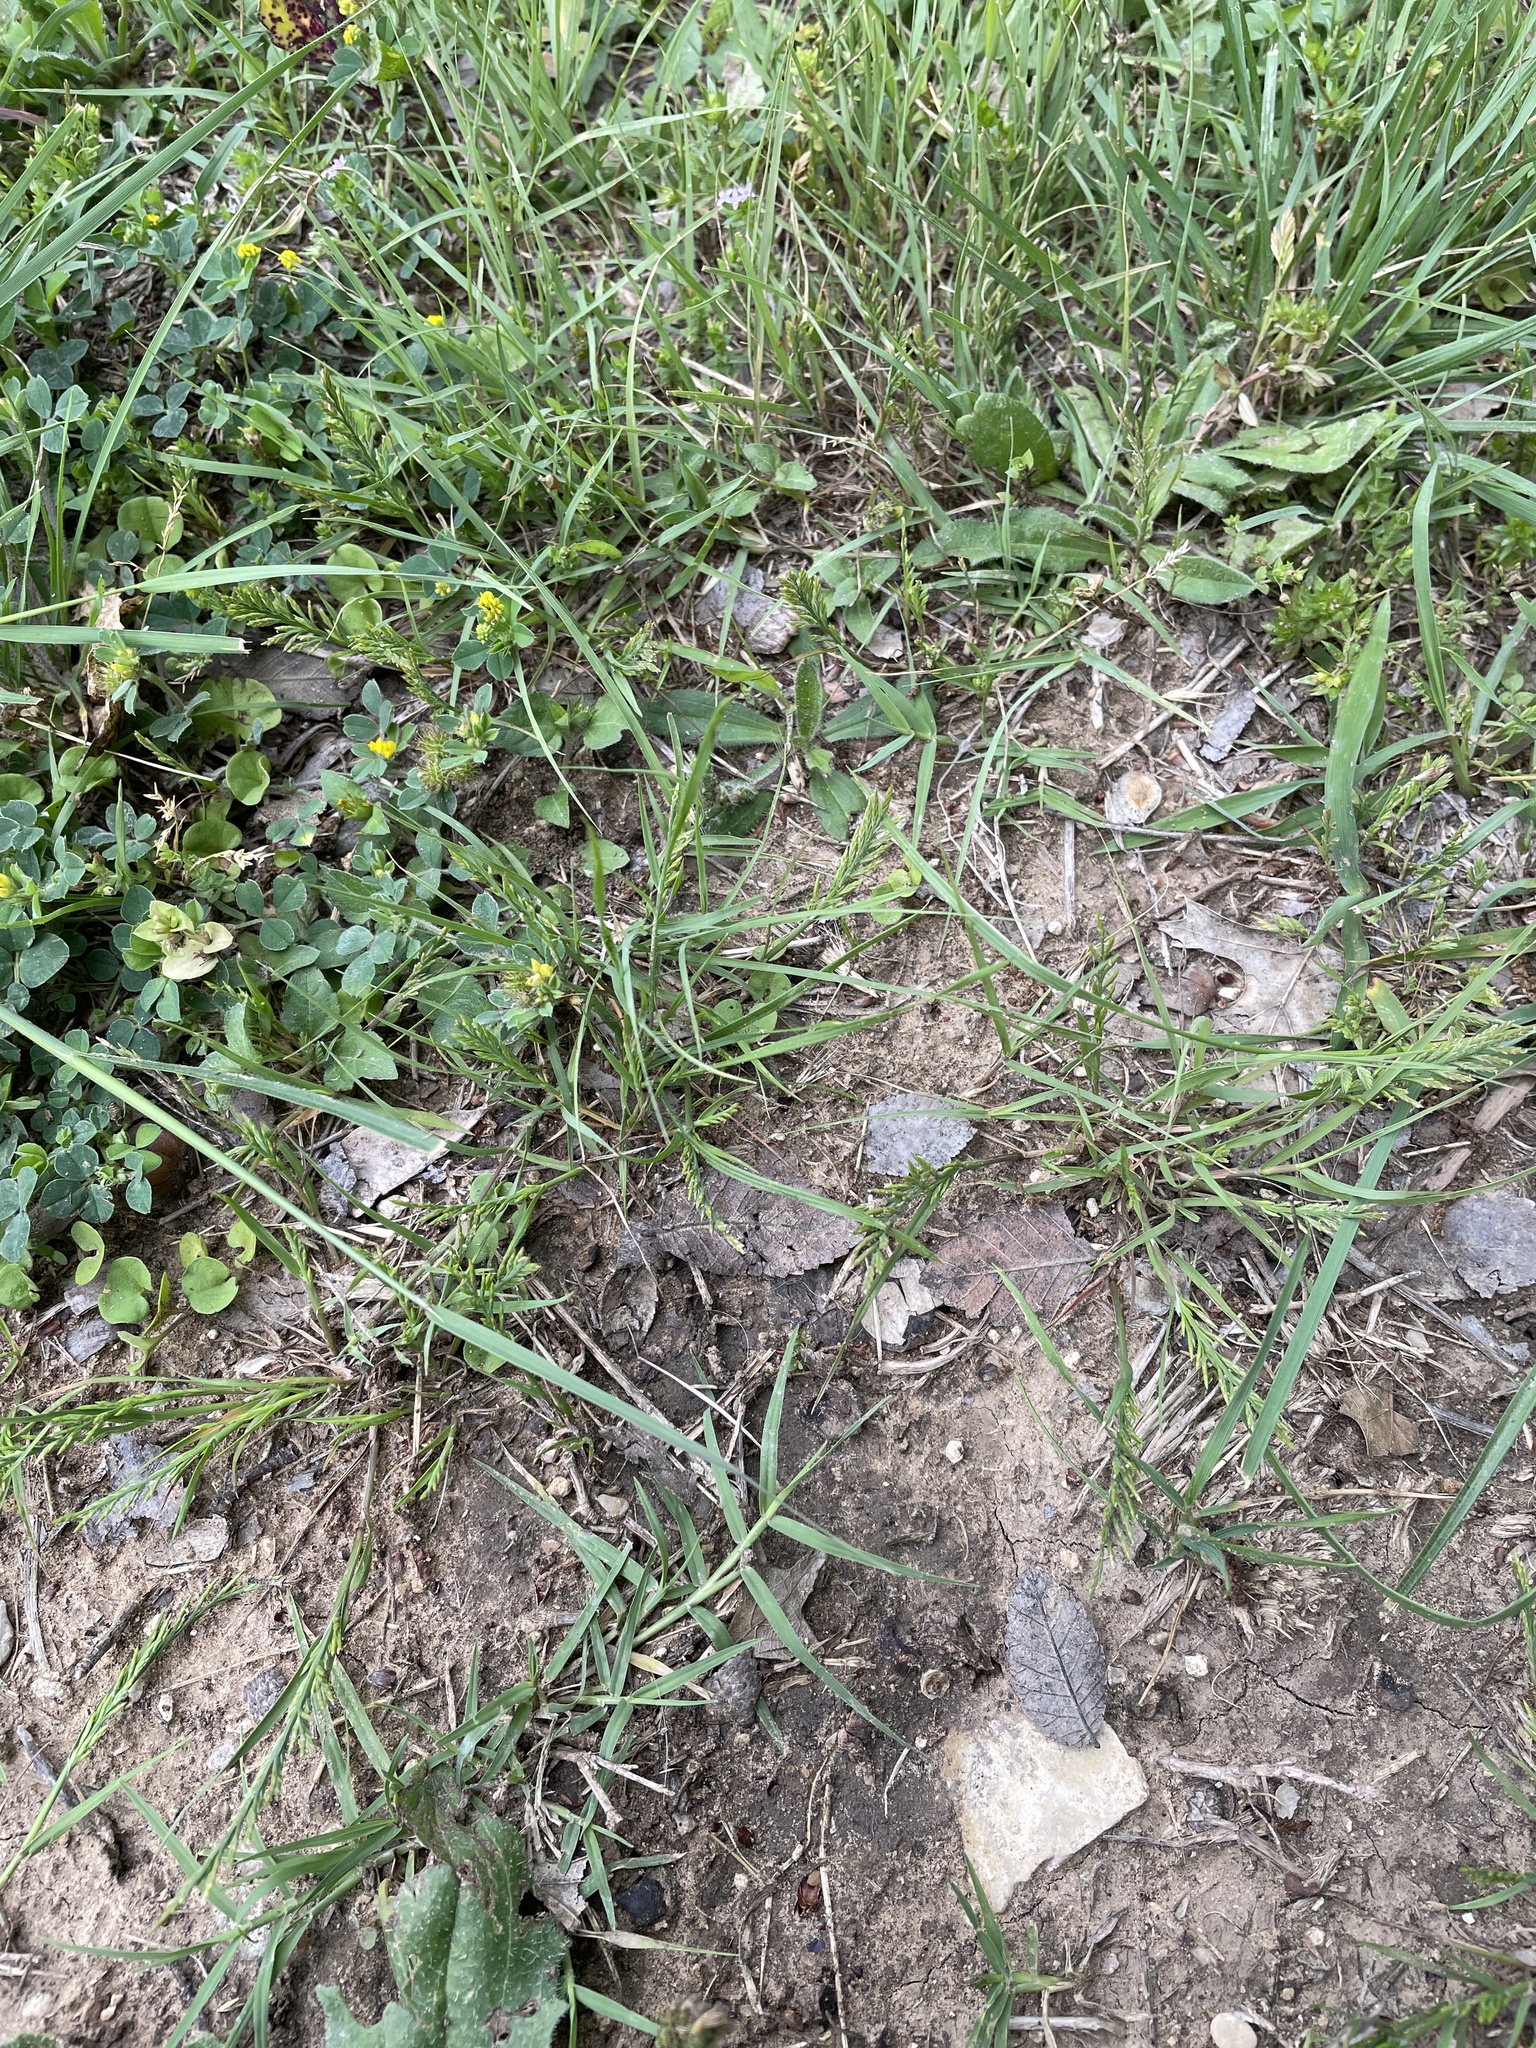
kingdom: Plantae
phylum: Tracheophyta
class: Liliopsida
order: Poales
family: Poaceae
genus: Catapodium
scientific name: Catapodium rigidum
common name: Fern-grass
